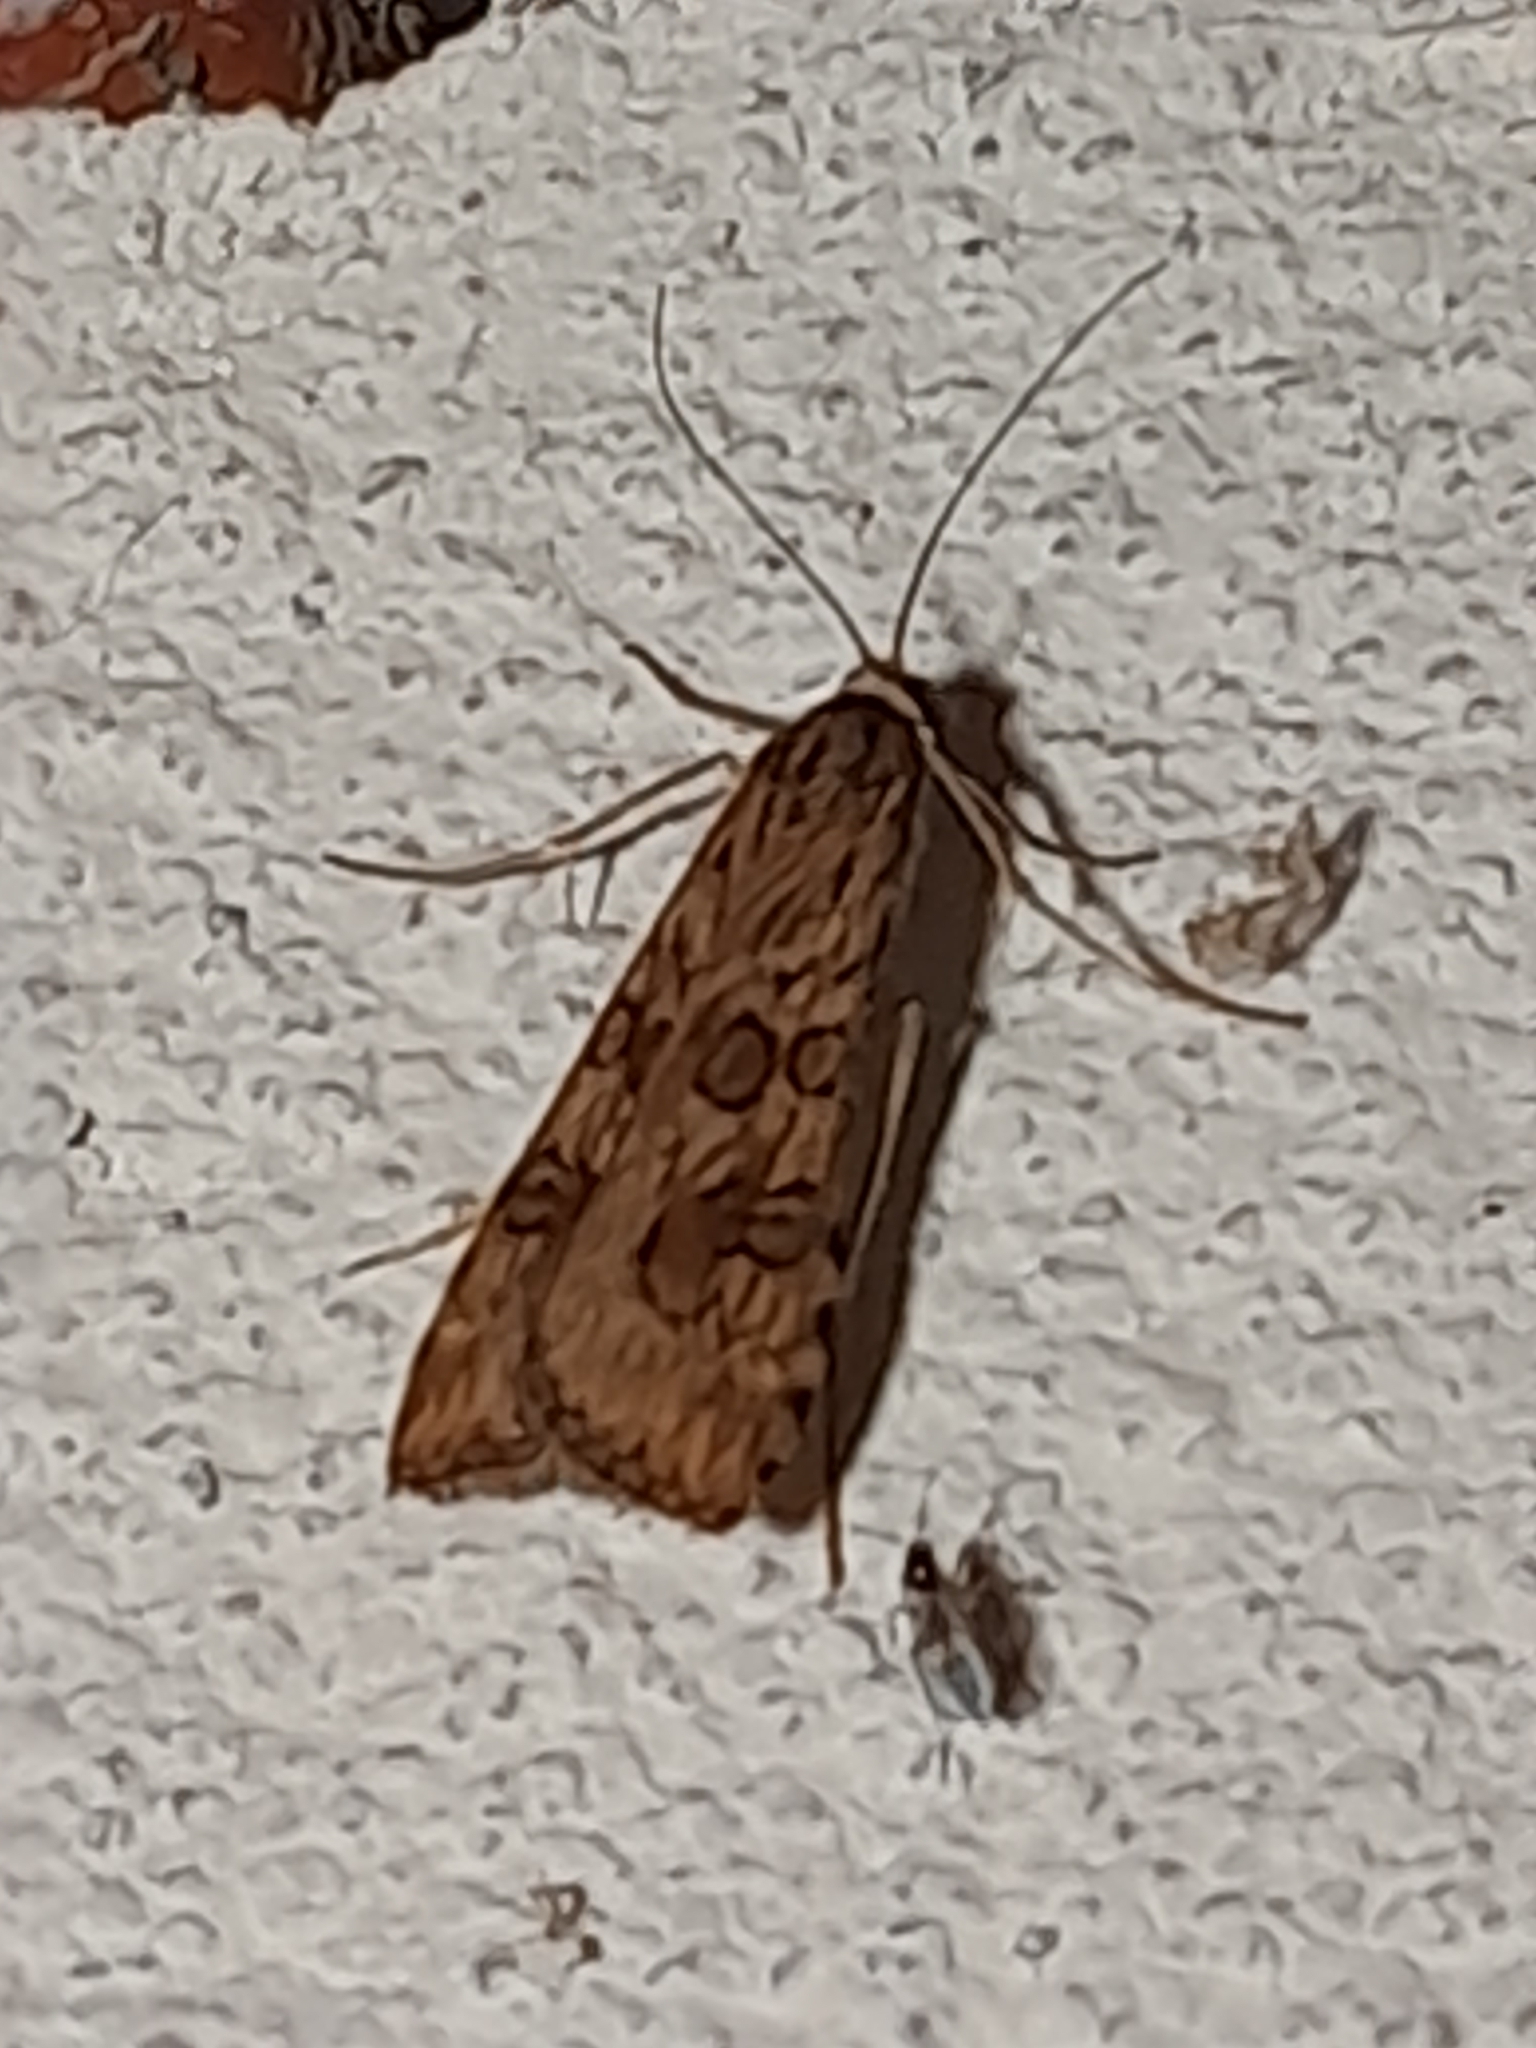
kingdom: Animalia
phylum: Arthropoda
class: Insecta
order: Lepidoptera
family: Crambidae
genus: Nomophila
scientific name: Nomophila noctuella
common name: Rush veneer
